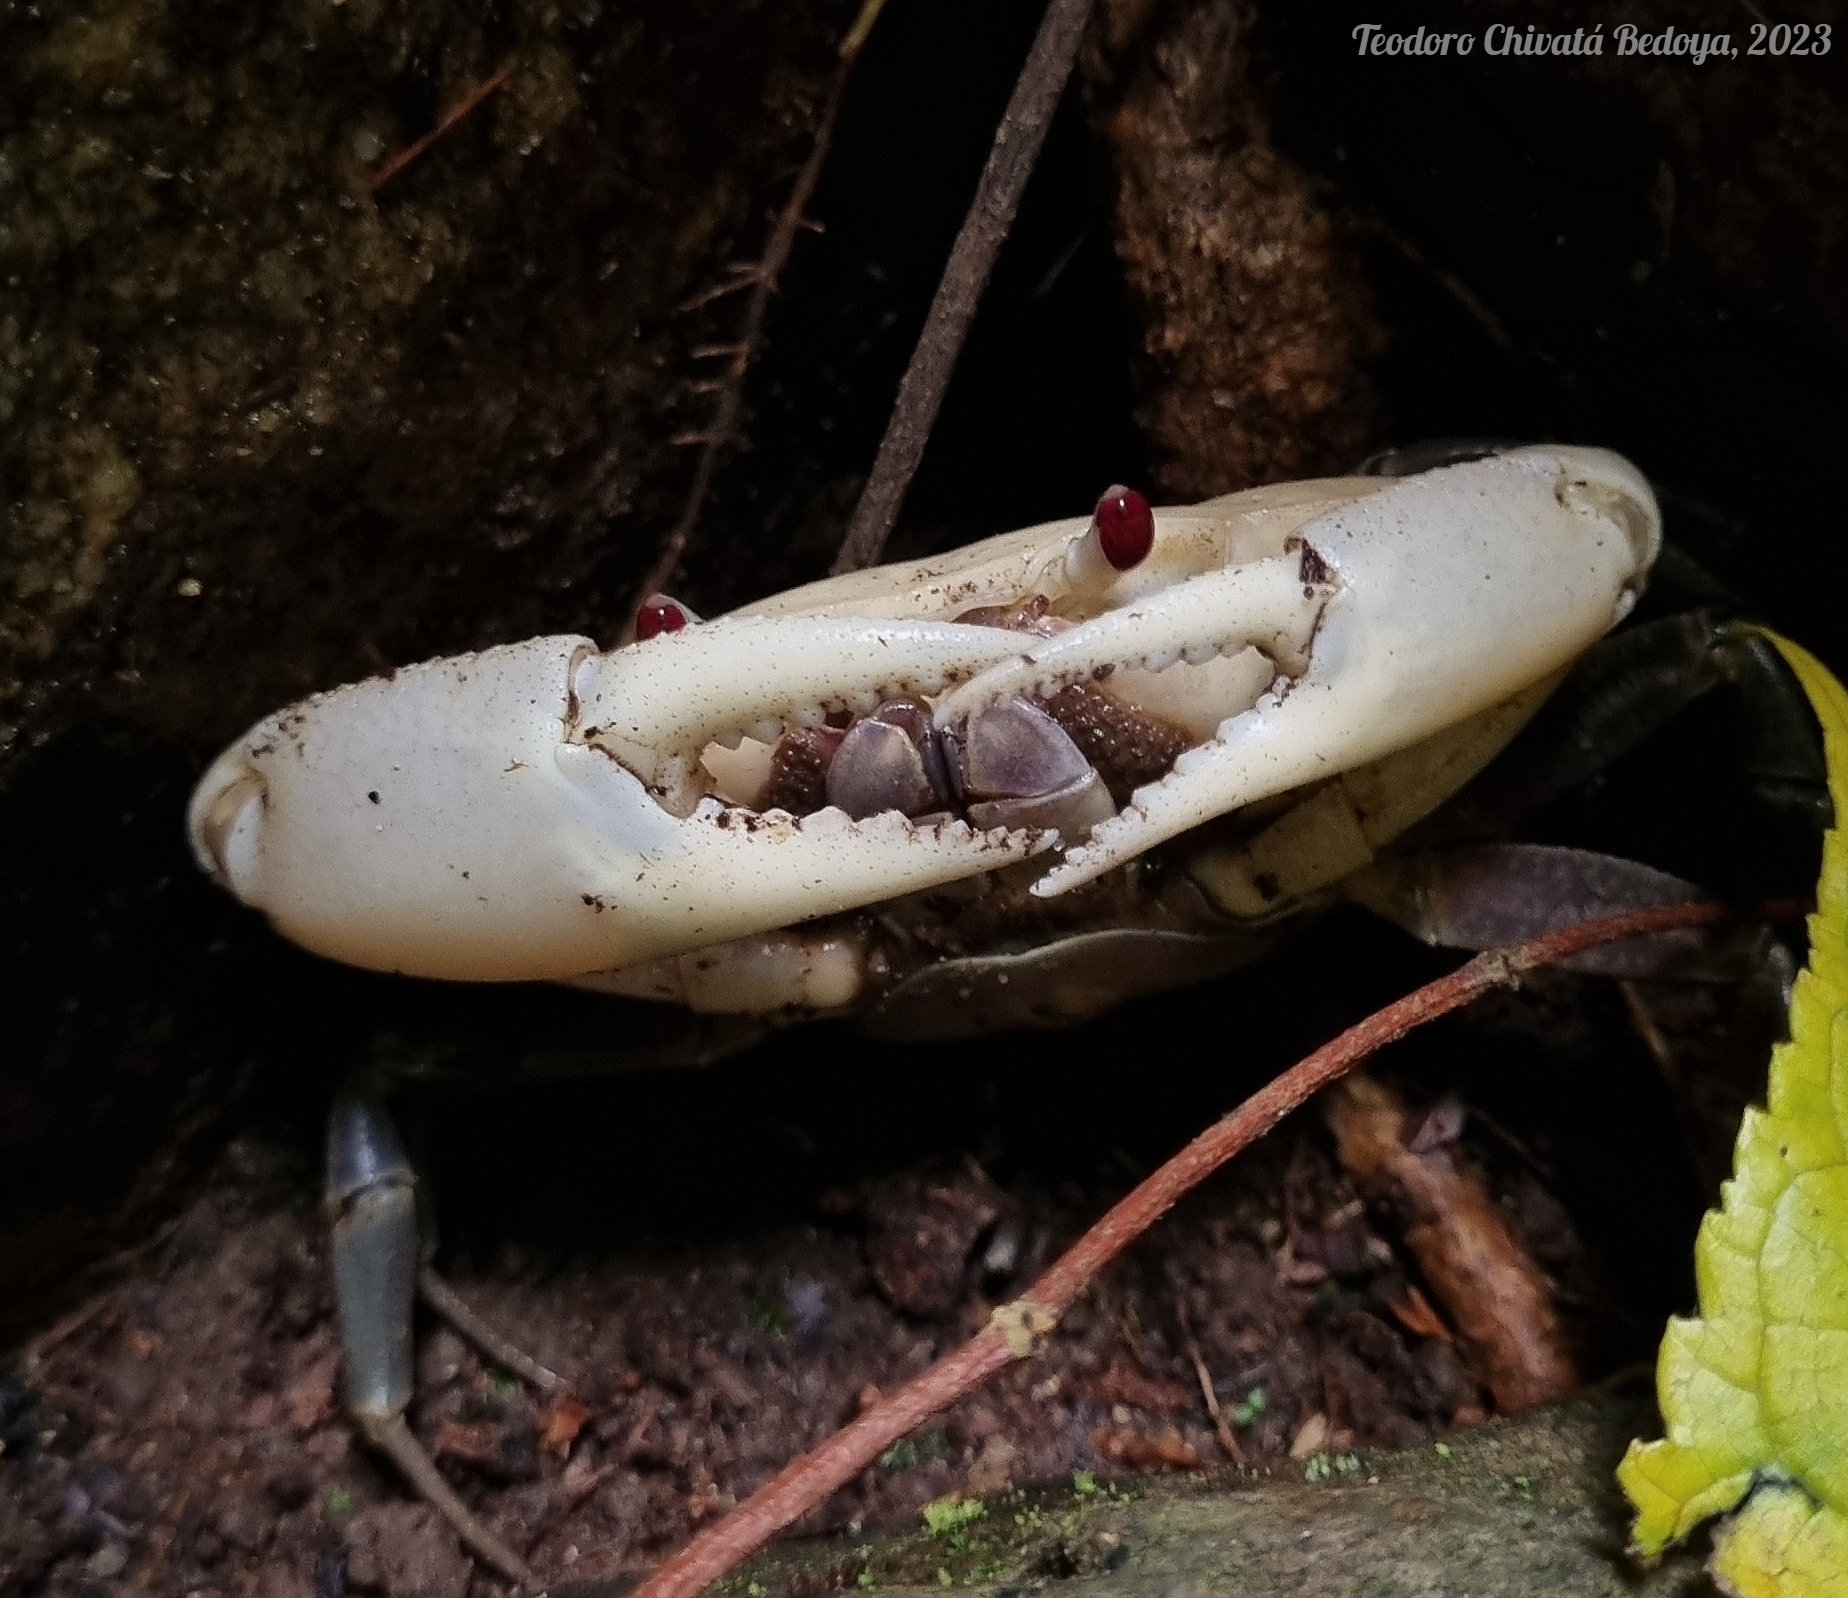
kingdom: Animalia
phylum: Arthropoda
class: Malacostraca
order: Decapoda
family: Pseudothelphusidae
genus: Eudaniela
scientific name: Eudaniela casanarensis
